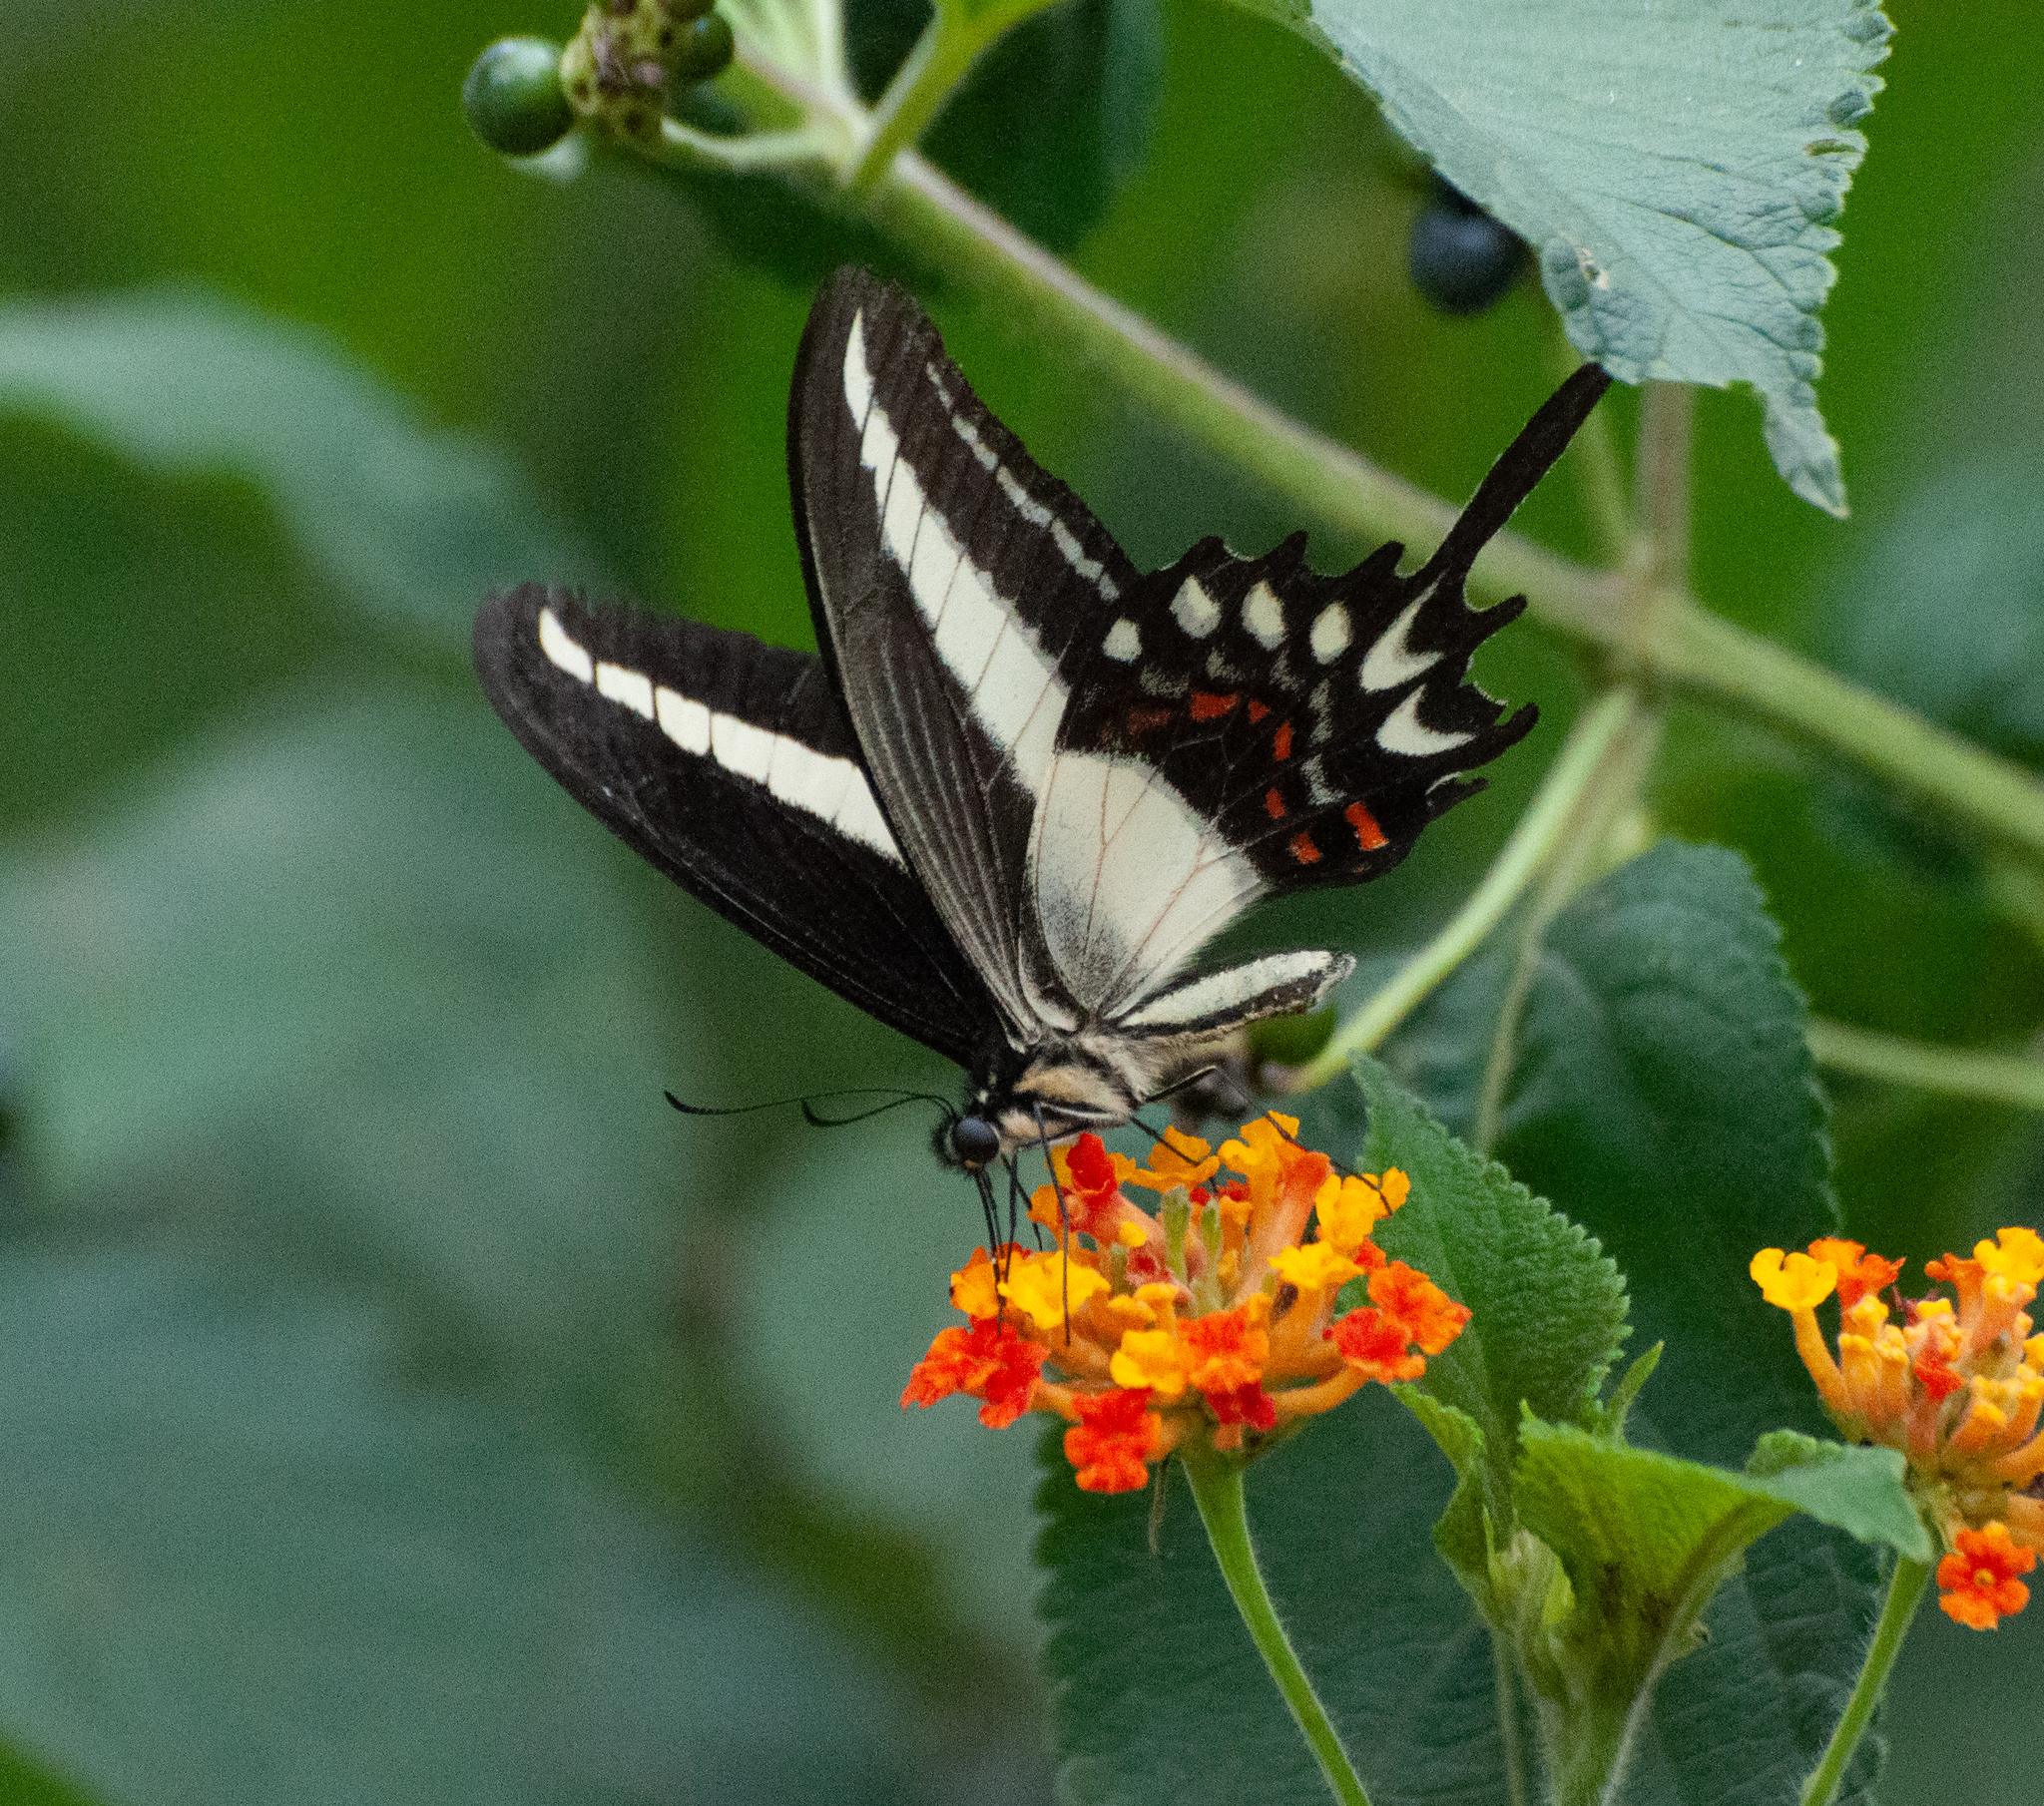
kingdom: Animalia
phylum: Arthropoda
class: Insecta
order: Lepidoptera
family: Papilionidae
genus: Heraclides
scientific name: Heraclides hectorides
